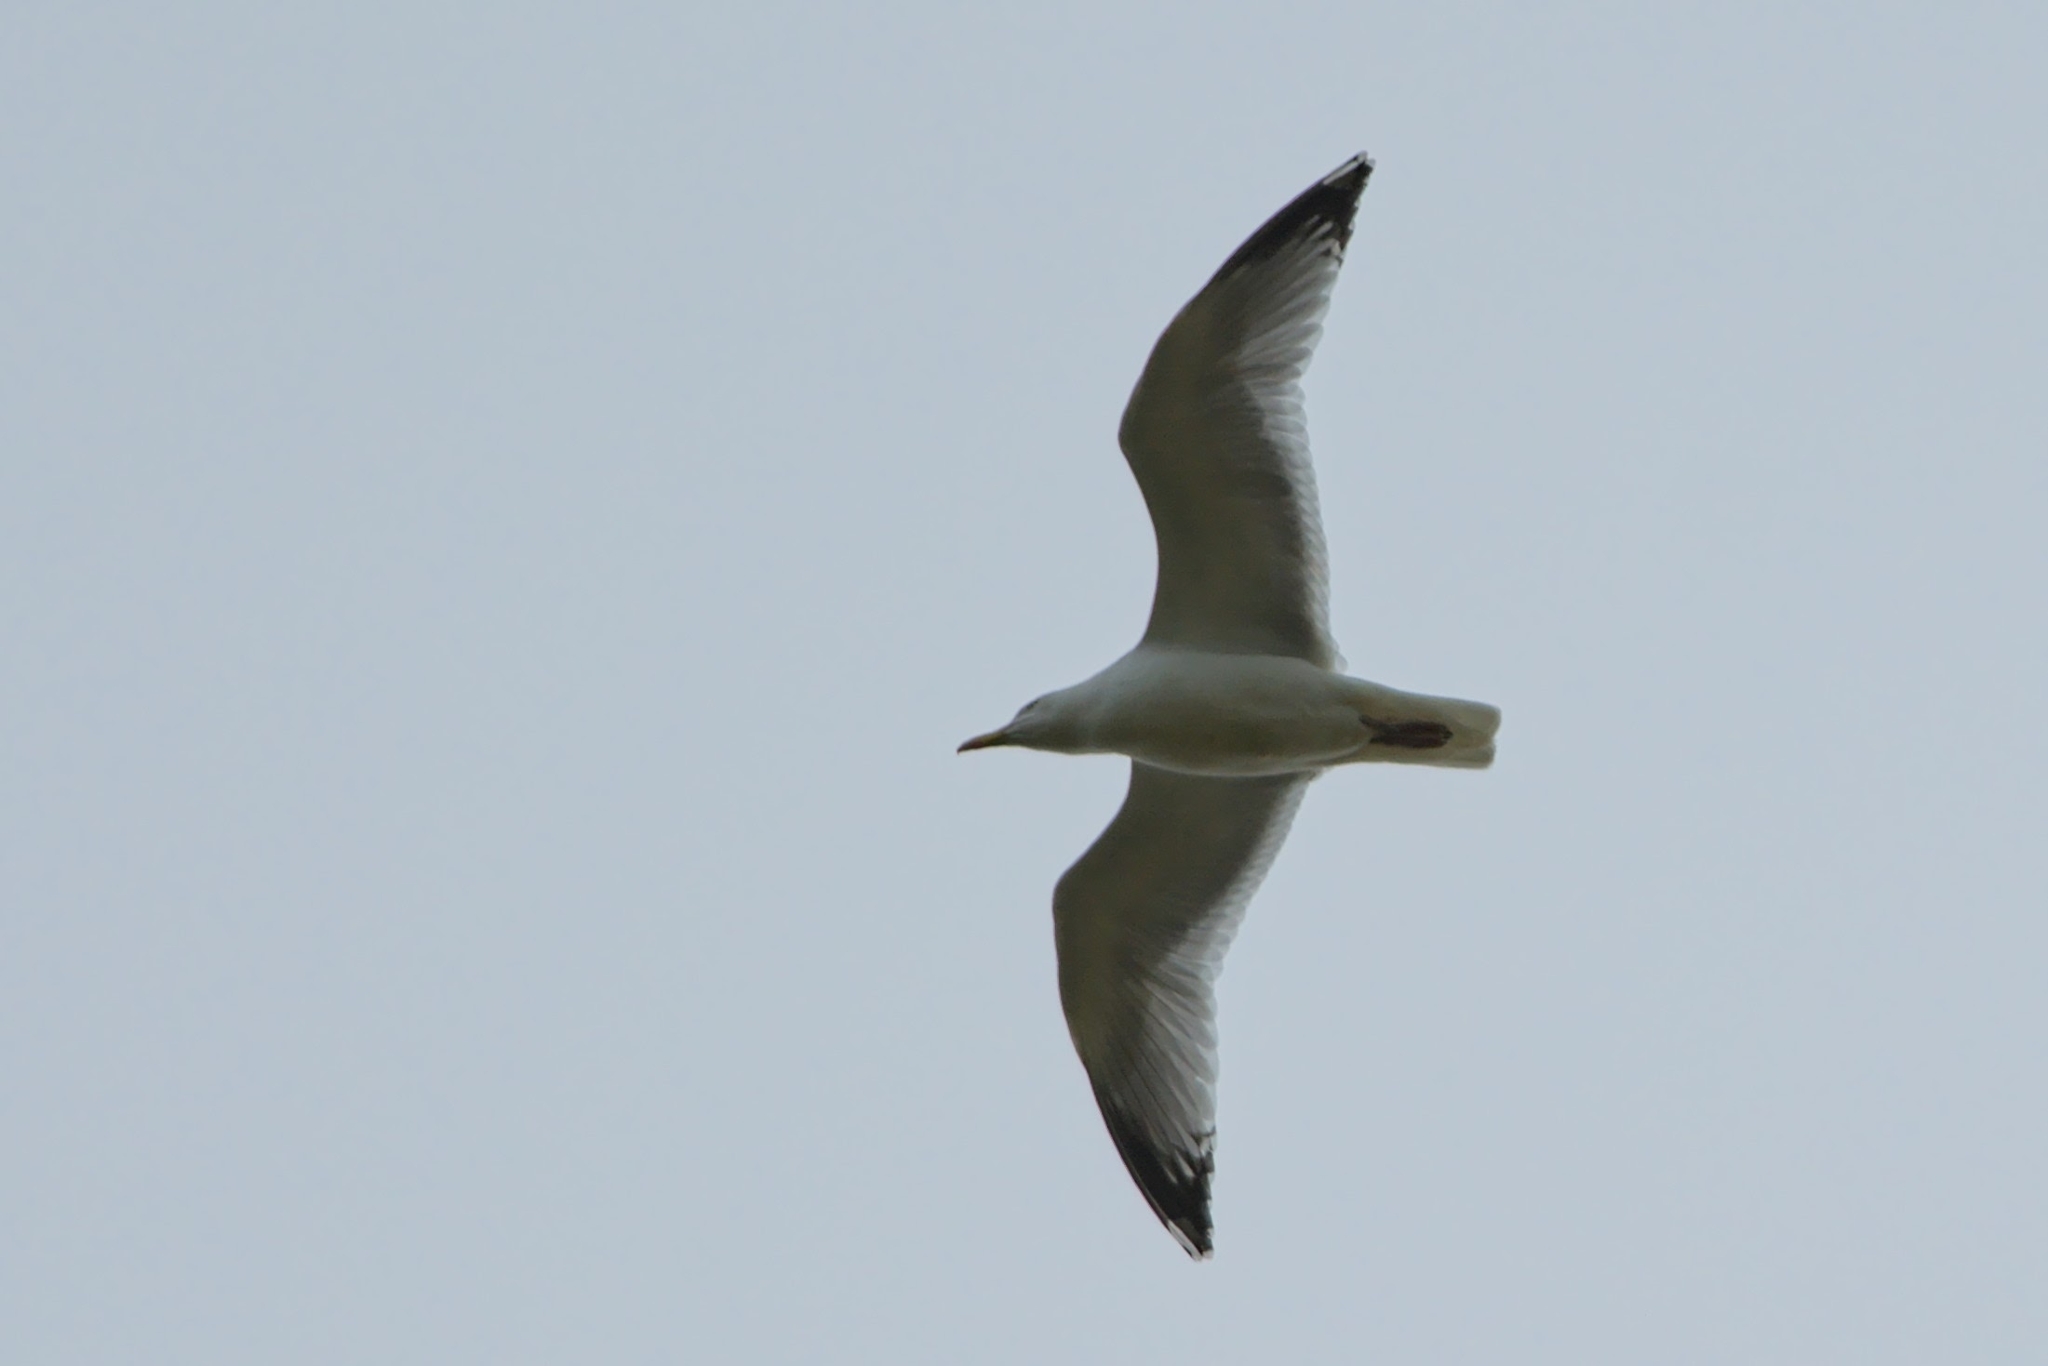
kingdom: Animalia
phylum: Chordata
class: Aves
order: Charadriiformes
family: Laridae
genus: Larus
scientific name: Larus argentatus
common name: Herring gull
